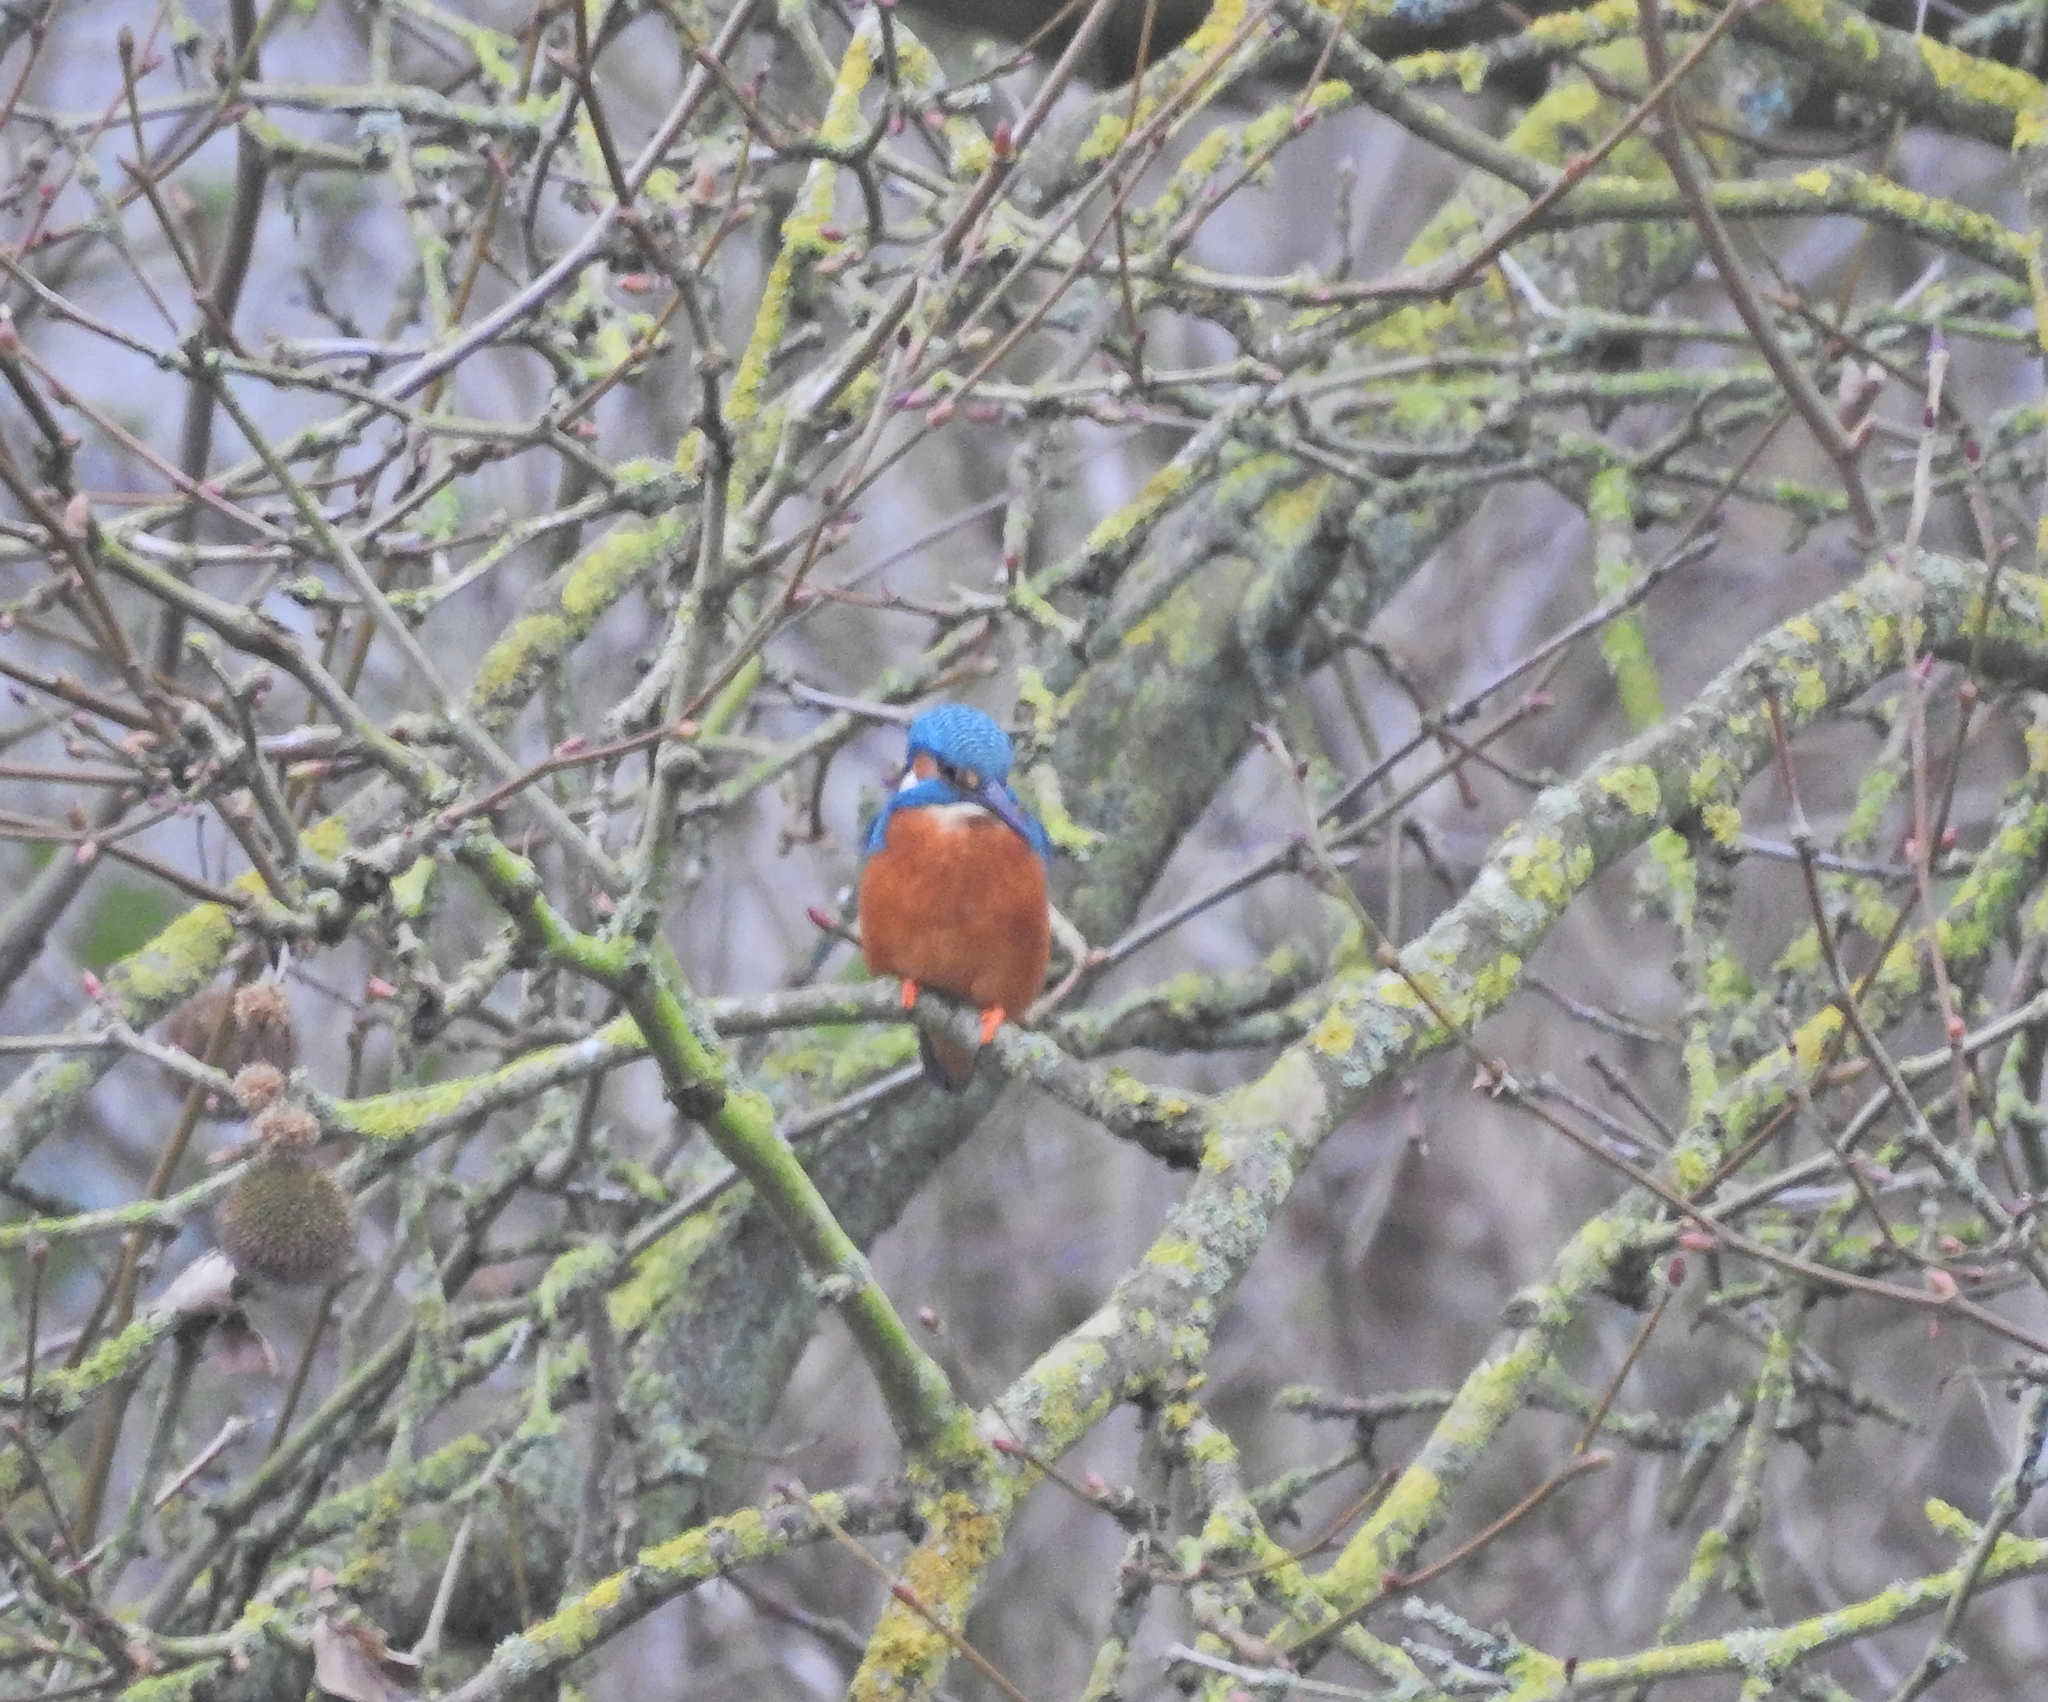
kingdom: Animalia
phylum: Chordata
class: Aves
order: Coraciiformes
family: Alcedinidae
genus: Alcedo
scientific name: Alcedo atthis
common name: Common kingfisher
